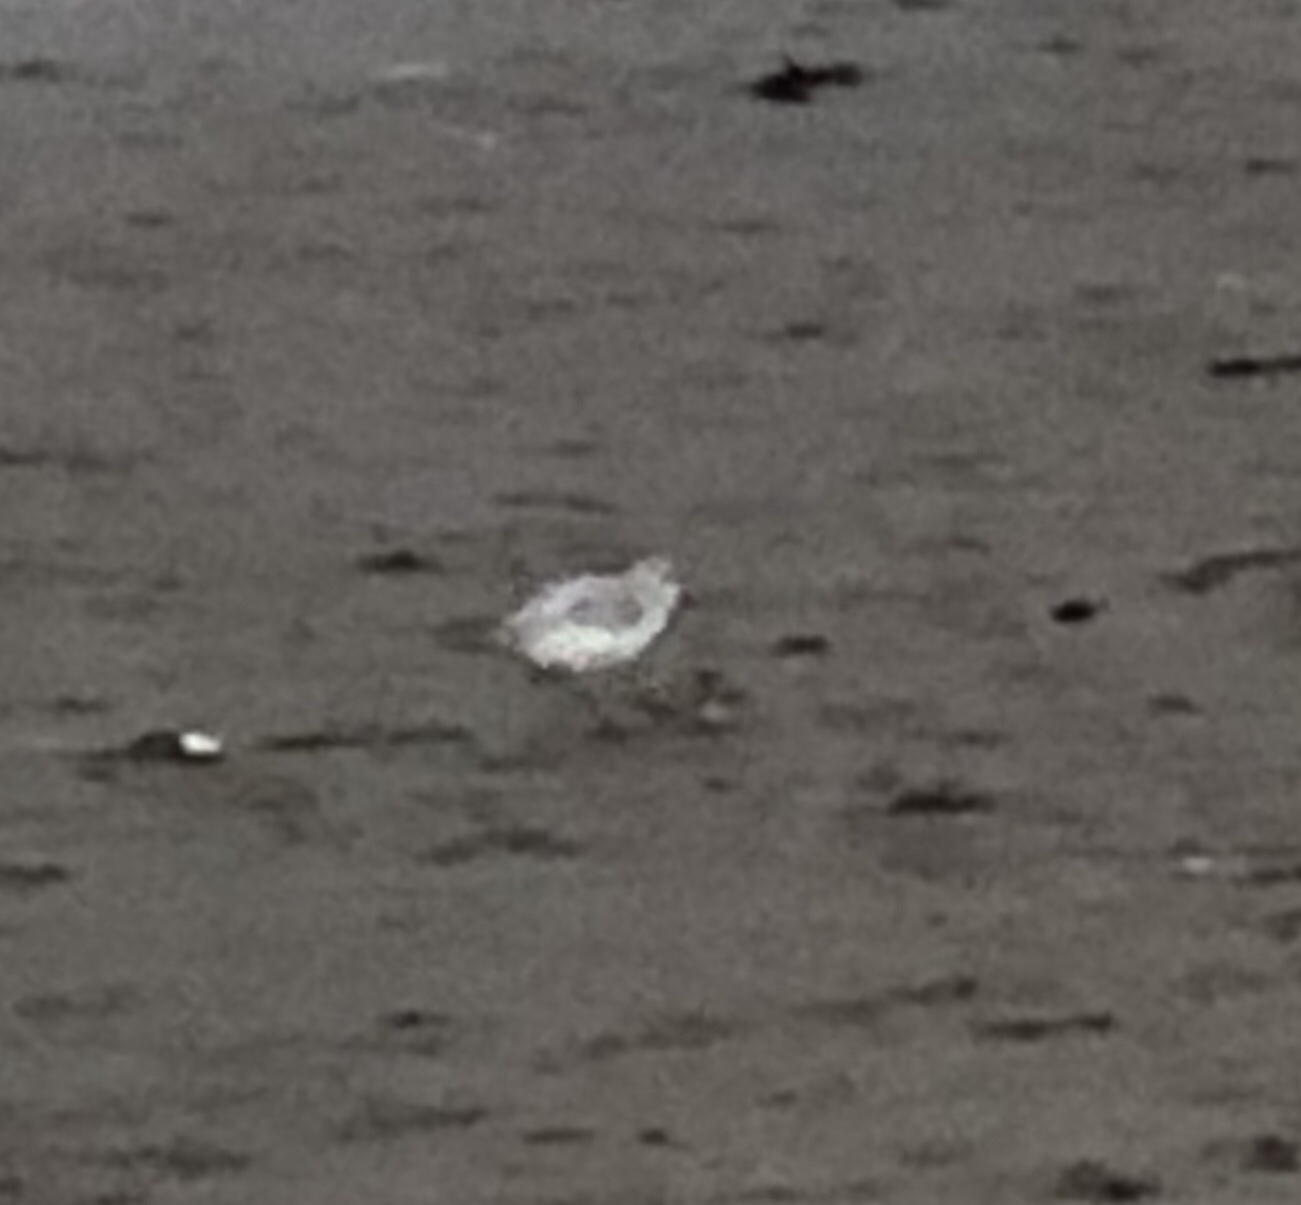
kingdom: Animalia
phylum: Chordata
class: Aves
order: Charadriiformes
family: Scolopacidae
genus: Calidris
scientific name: Calidris alba
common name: Sanderling
